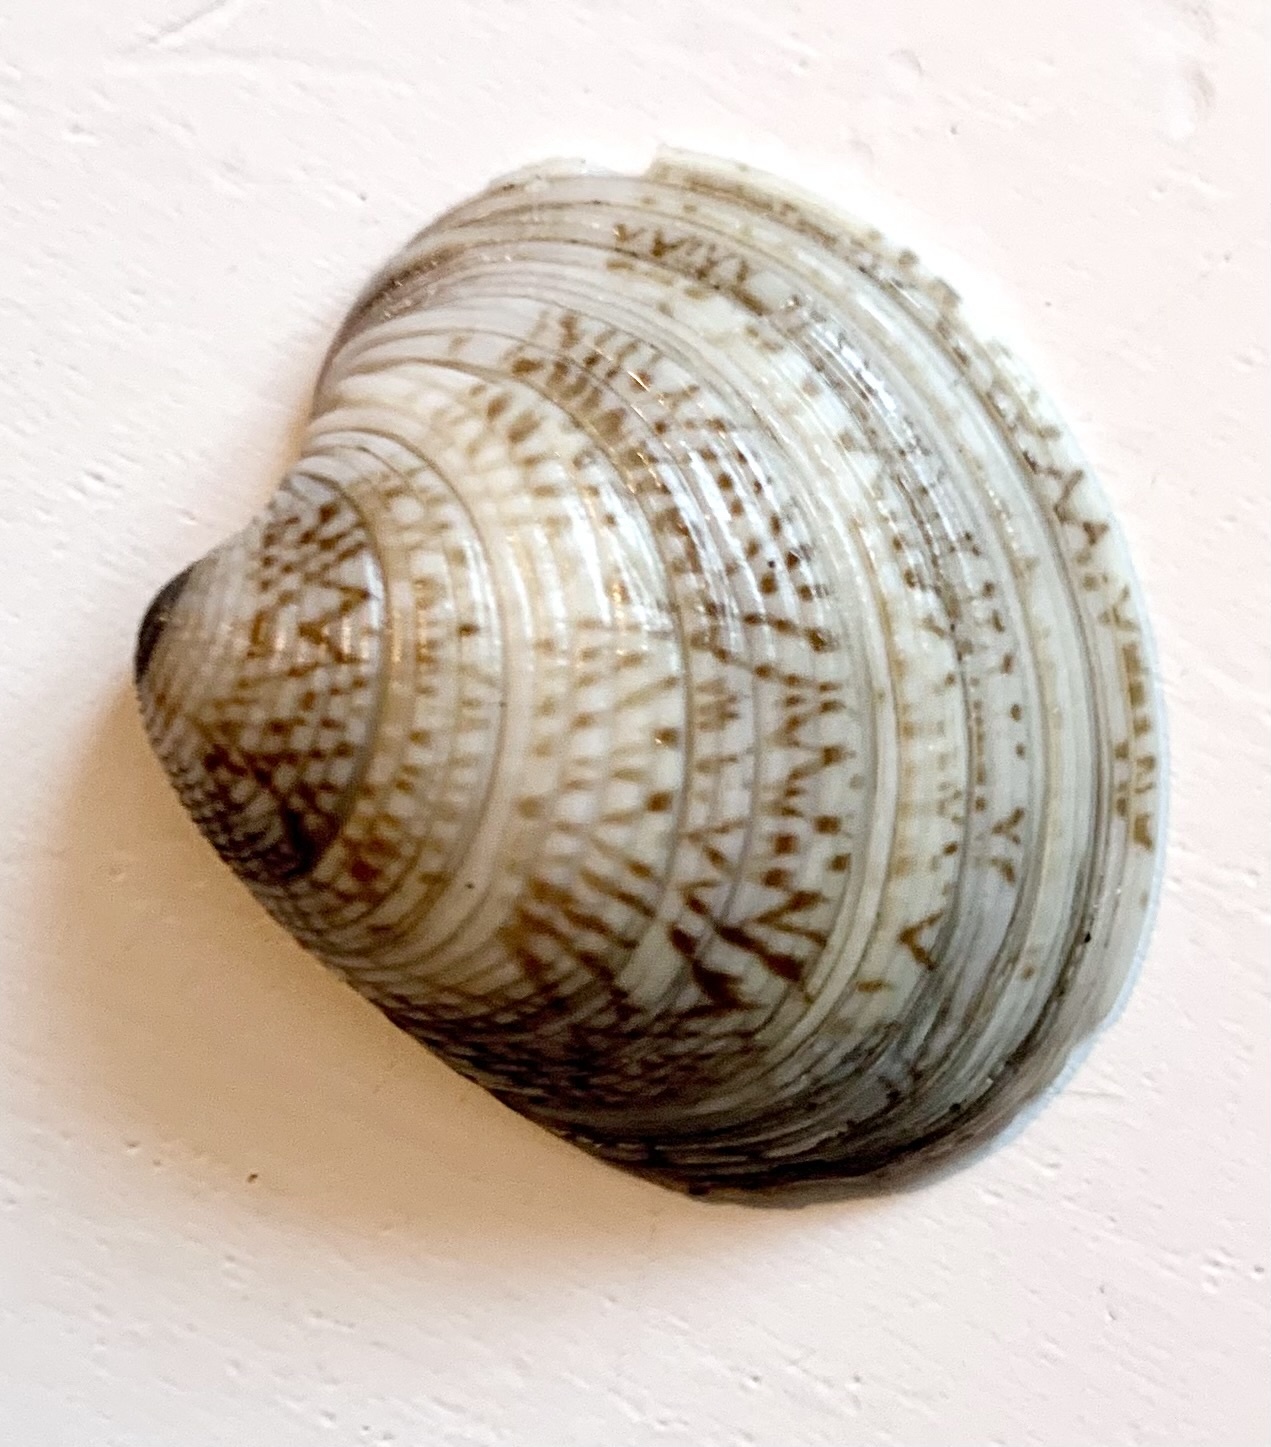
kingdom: Animalia
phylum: Mollusca
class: Bivalvia
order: Venerida
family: Veneridae
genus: Chamelea
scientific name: Chamelea gallina
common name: Chicken venus
